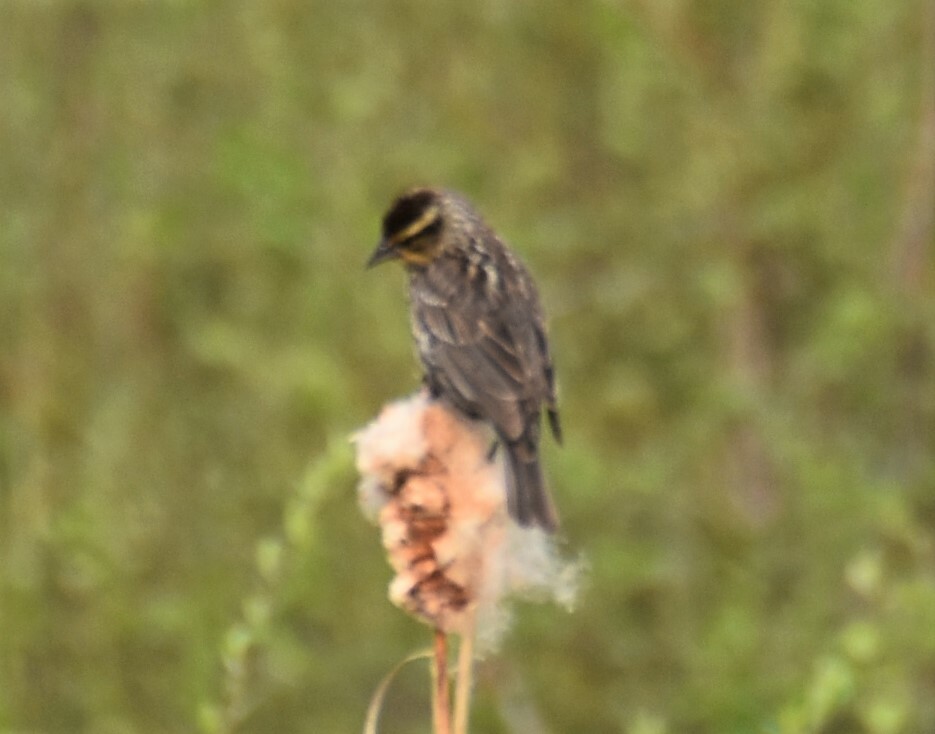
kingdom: Animalia
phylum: Chordata
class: Aves
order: Passeriformes
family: Icteridae
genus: Agelaius
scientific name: Agelaius phoeniceus
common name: Red-winged blackbird
